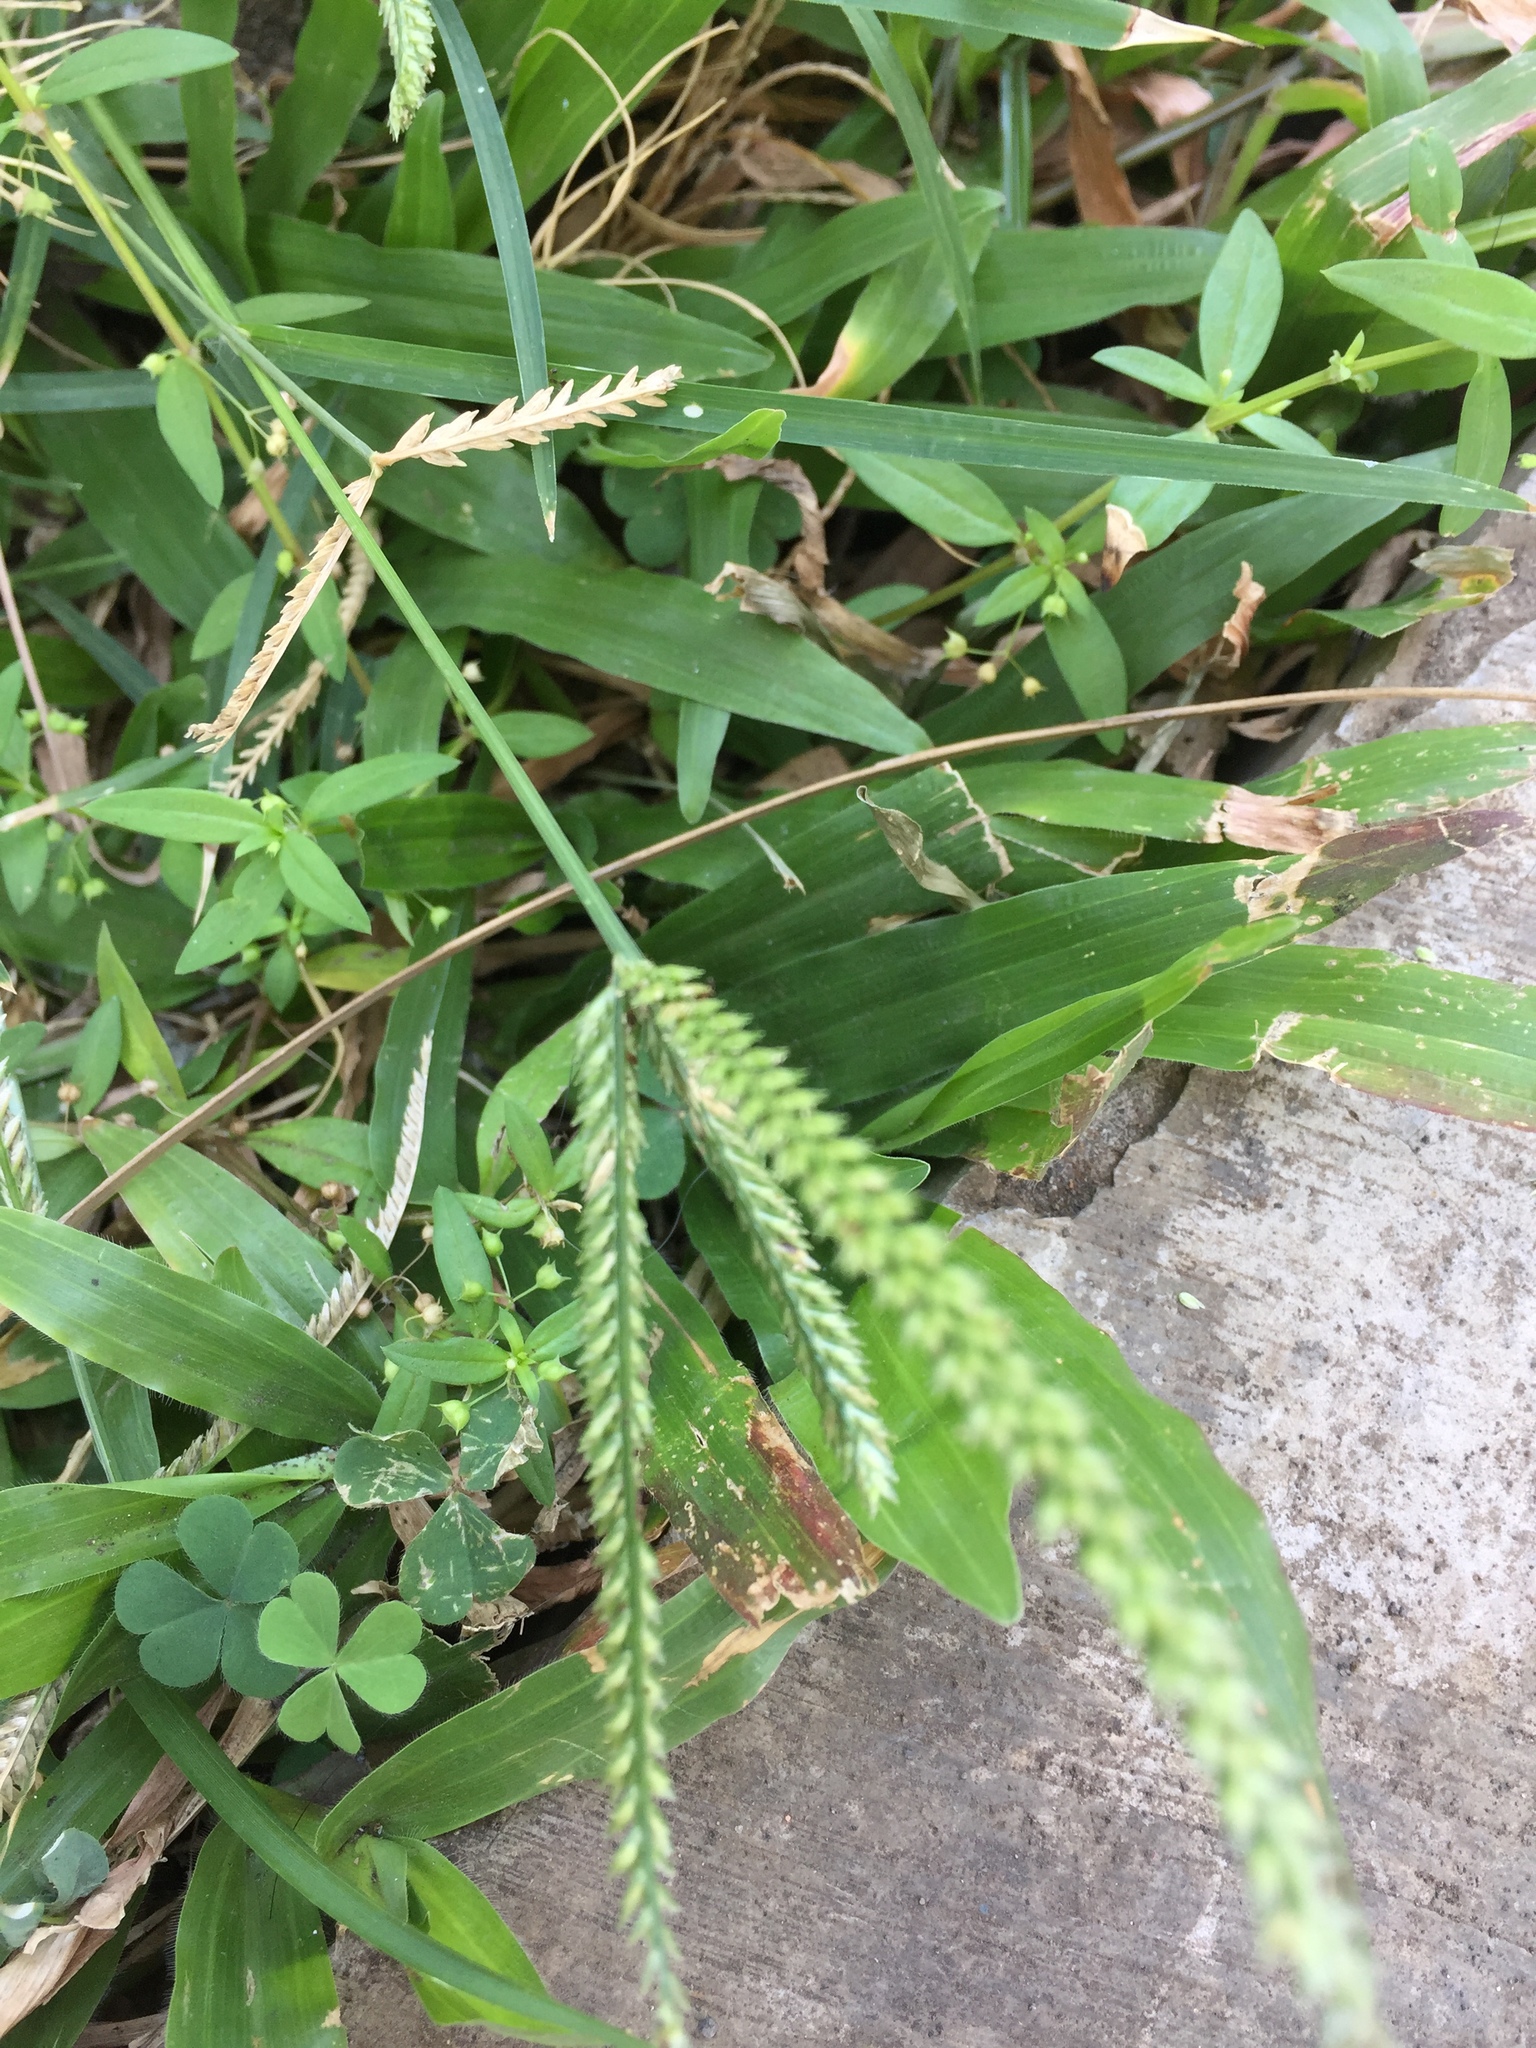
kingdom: Plantae
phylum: Tracheophyta
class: Liliopsida
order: Poales
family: Poaceae
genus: Eleusine
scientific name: Eleusine indica
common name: Yard-grass
